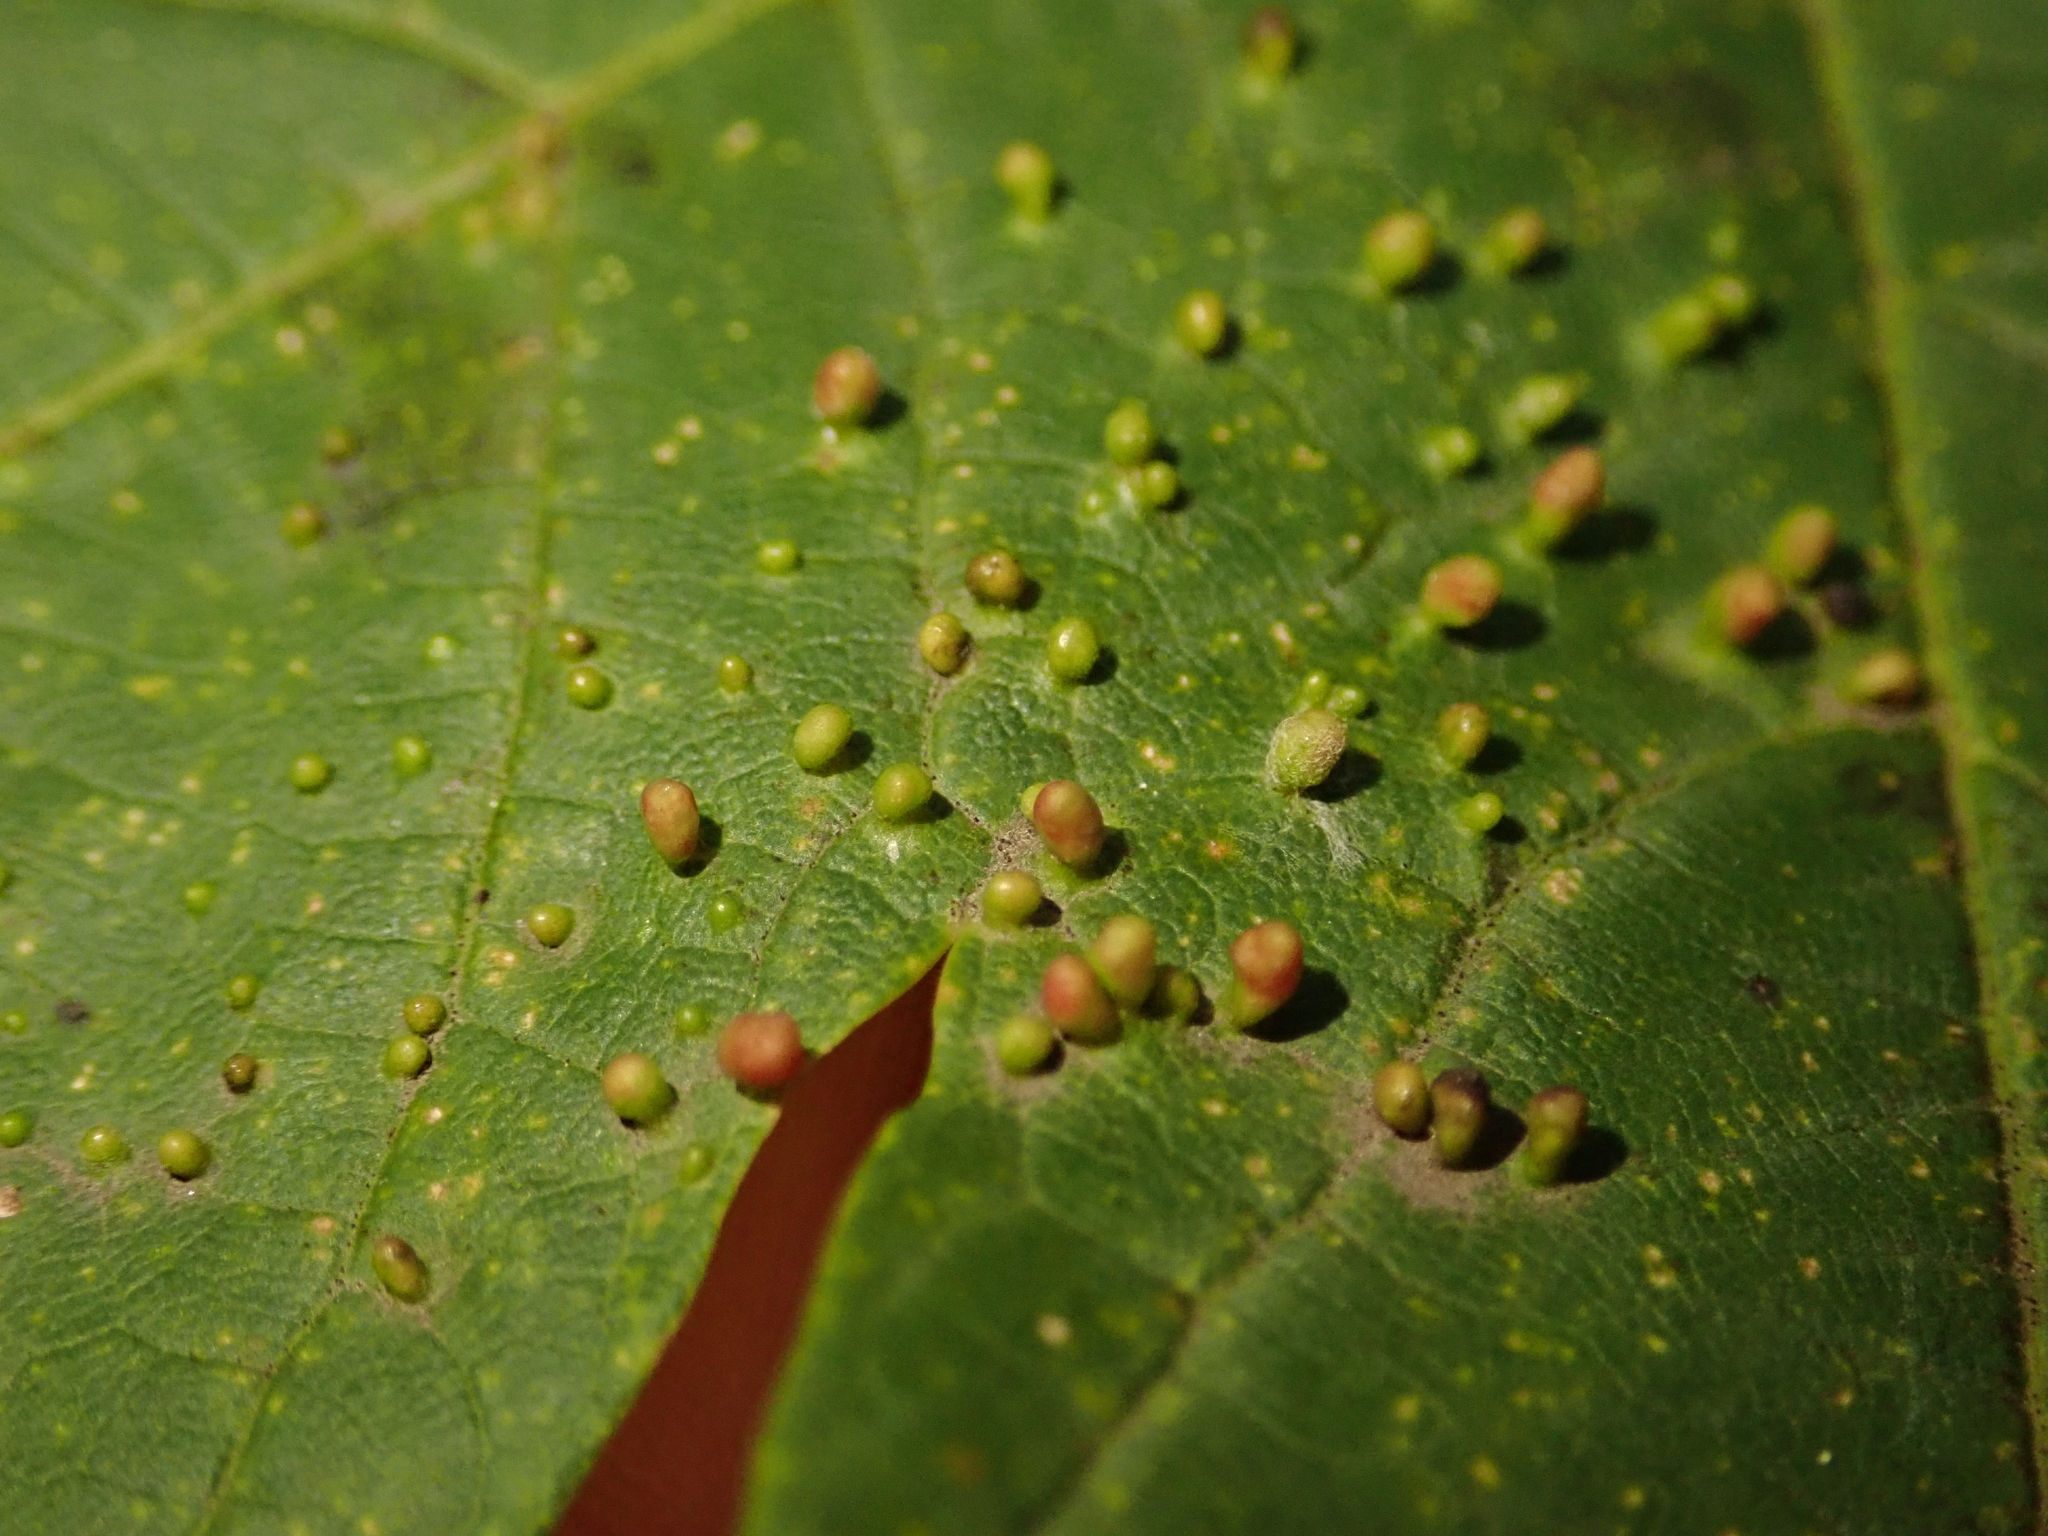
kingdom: Animalia
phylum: Arthropoda
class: Arachnida
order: Trombidiformes
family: Eriophyidae
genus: Aceria
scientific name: Aceria cephaloneus
